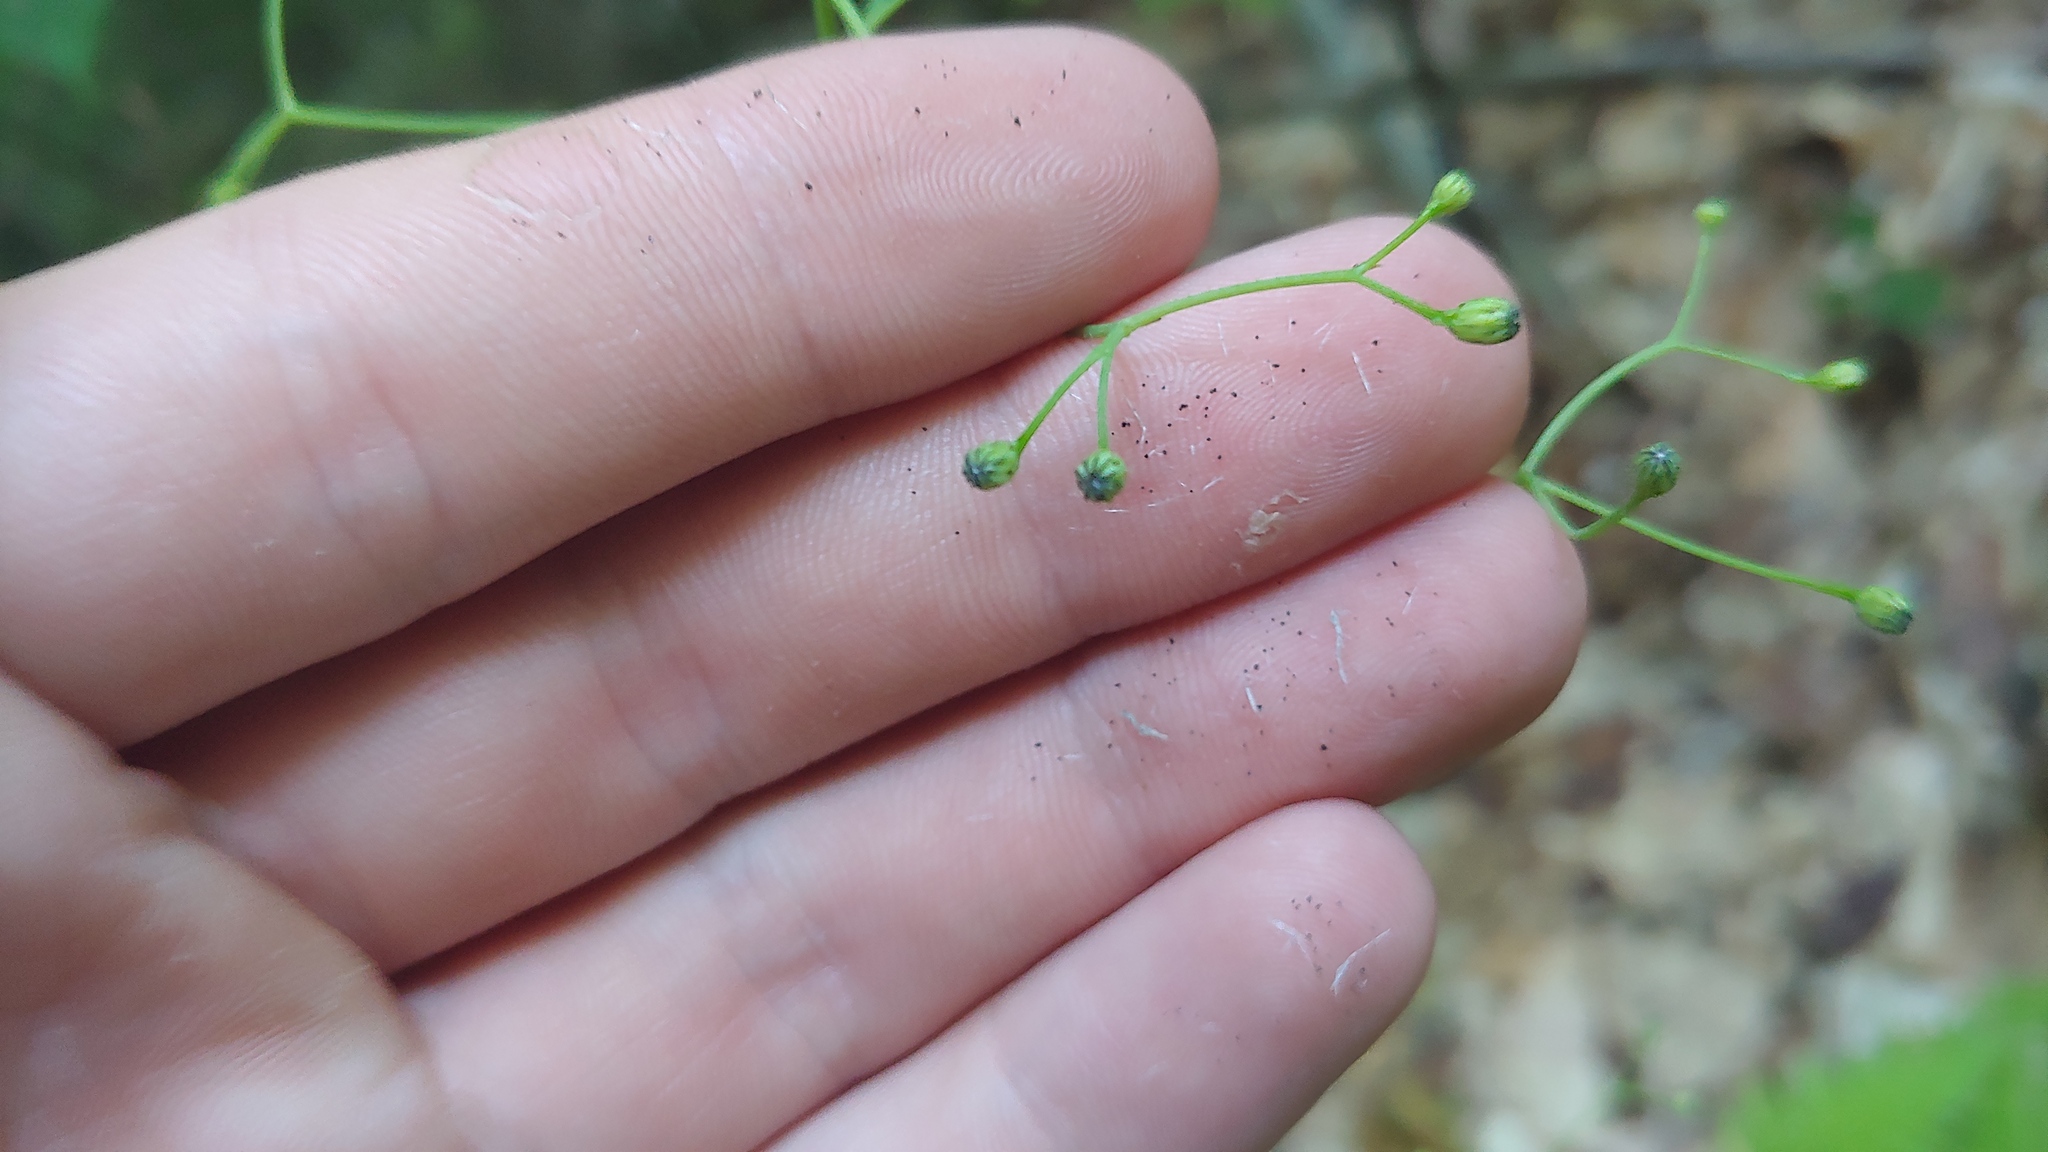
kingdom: Plantae
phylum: Tracheophyta
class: Magnoliopsida
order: Asterales
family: Asteraceae
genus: Hieracium
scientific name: Hieracium paniculatum
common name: Allegheny hawkweed
